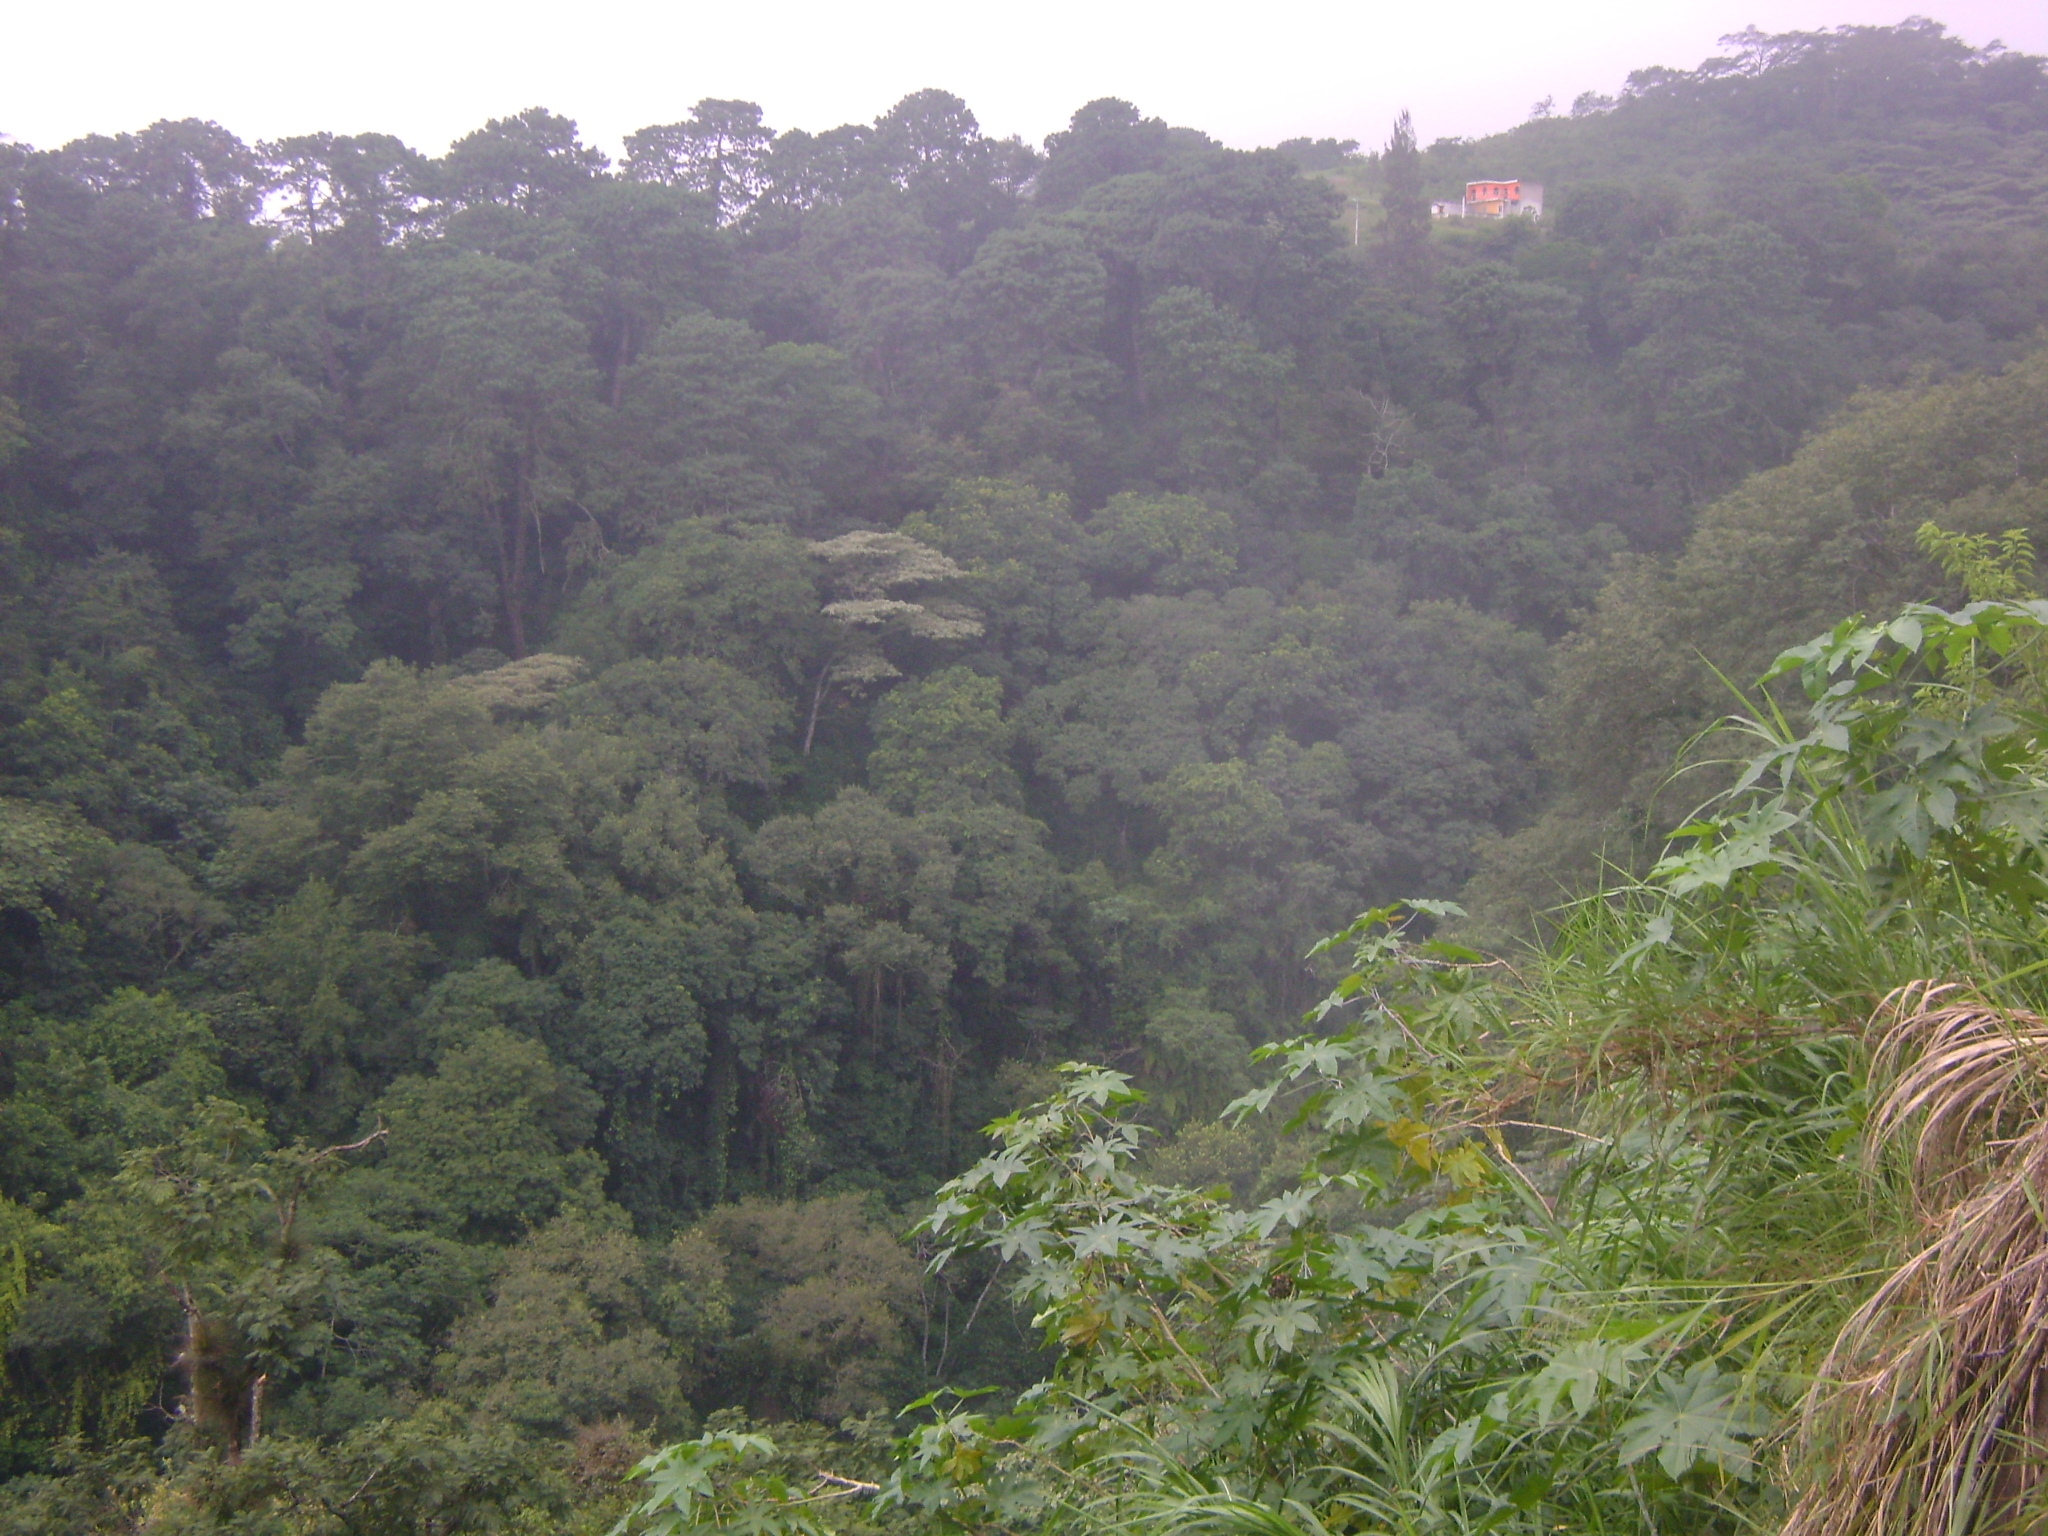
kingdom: Plantae
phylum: Tracheophyta
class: Magnoliopsida
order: Malpighiales
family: Euphorbiaceae
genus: Ricinus
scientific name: Ricinus communis
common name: Castor-oil-plant
